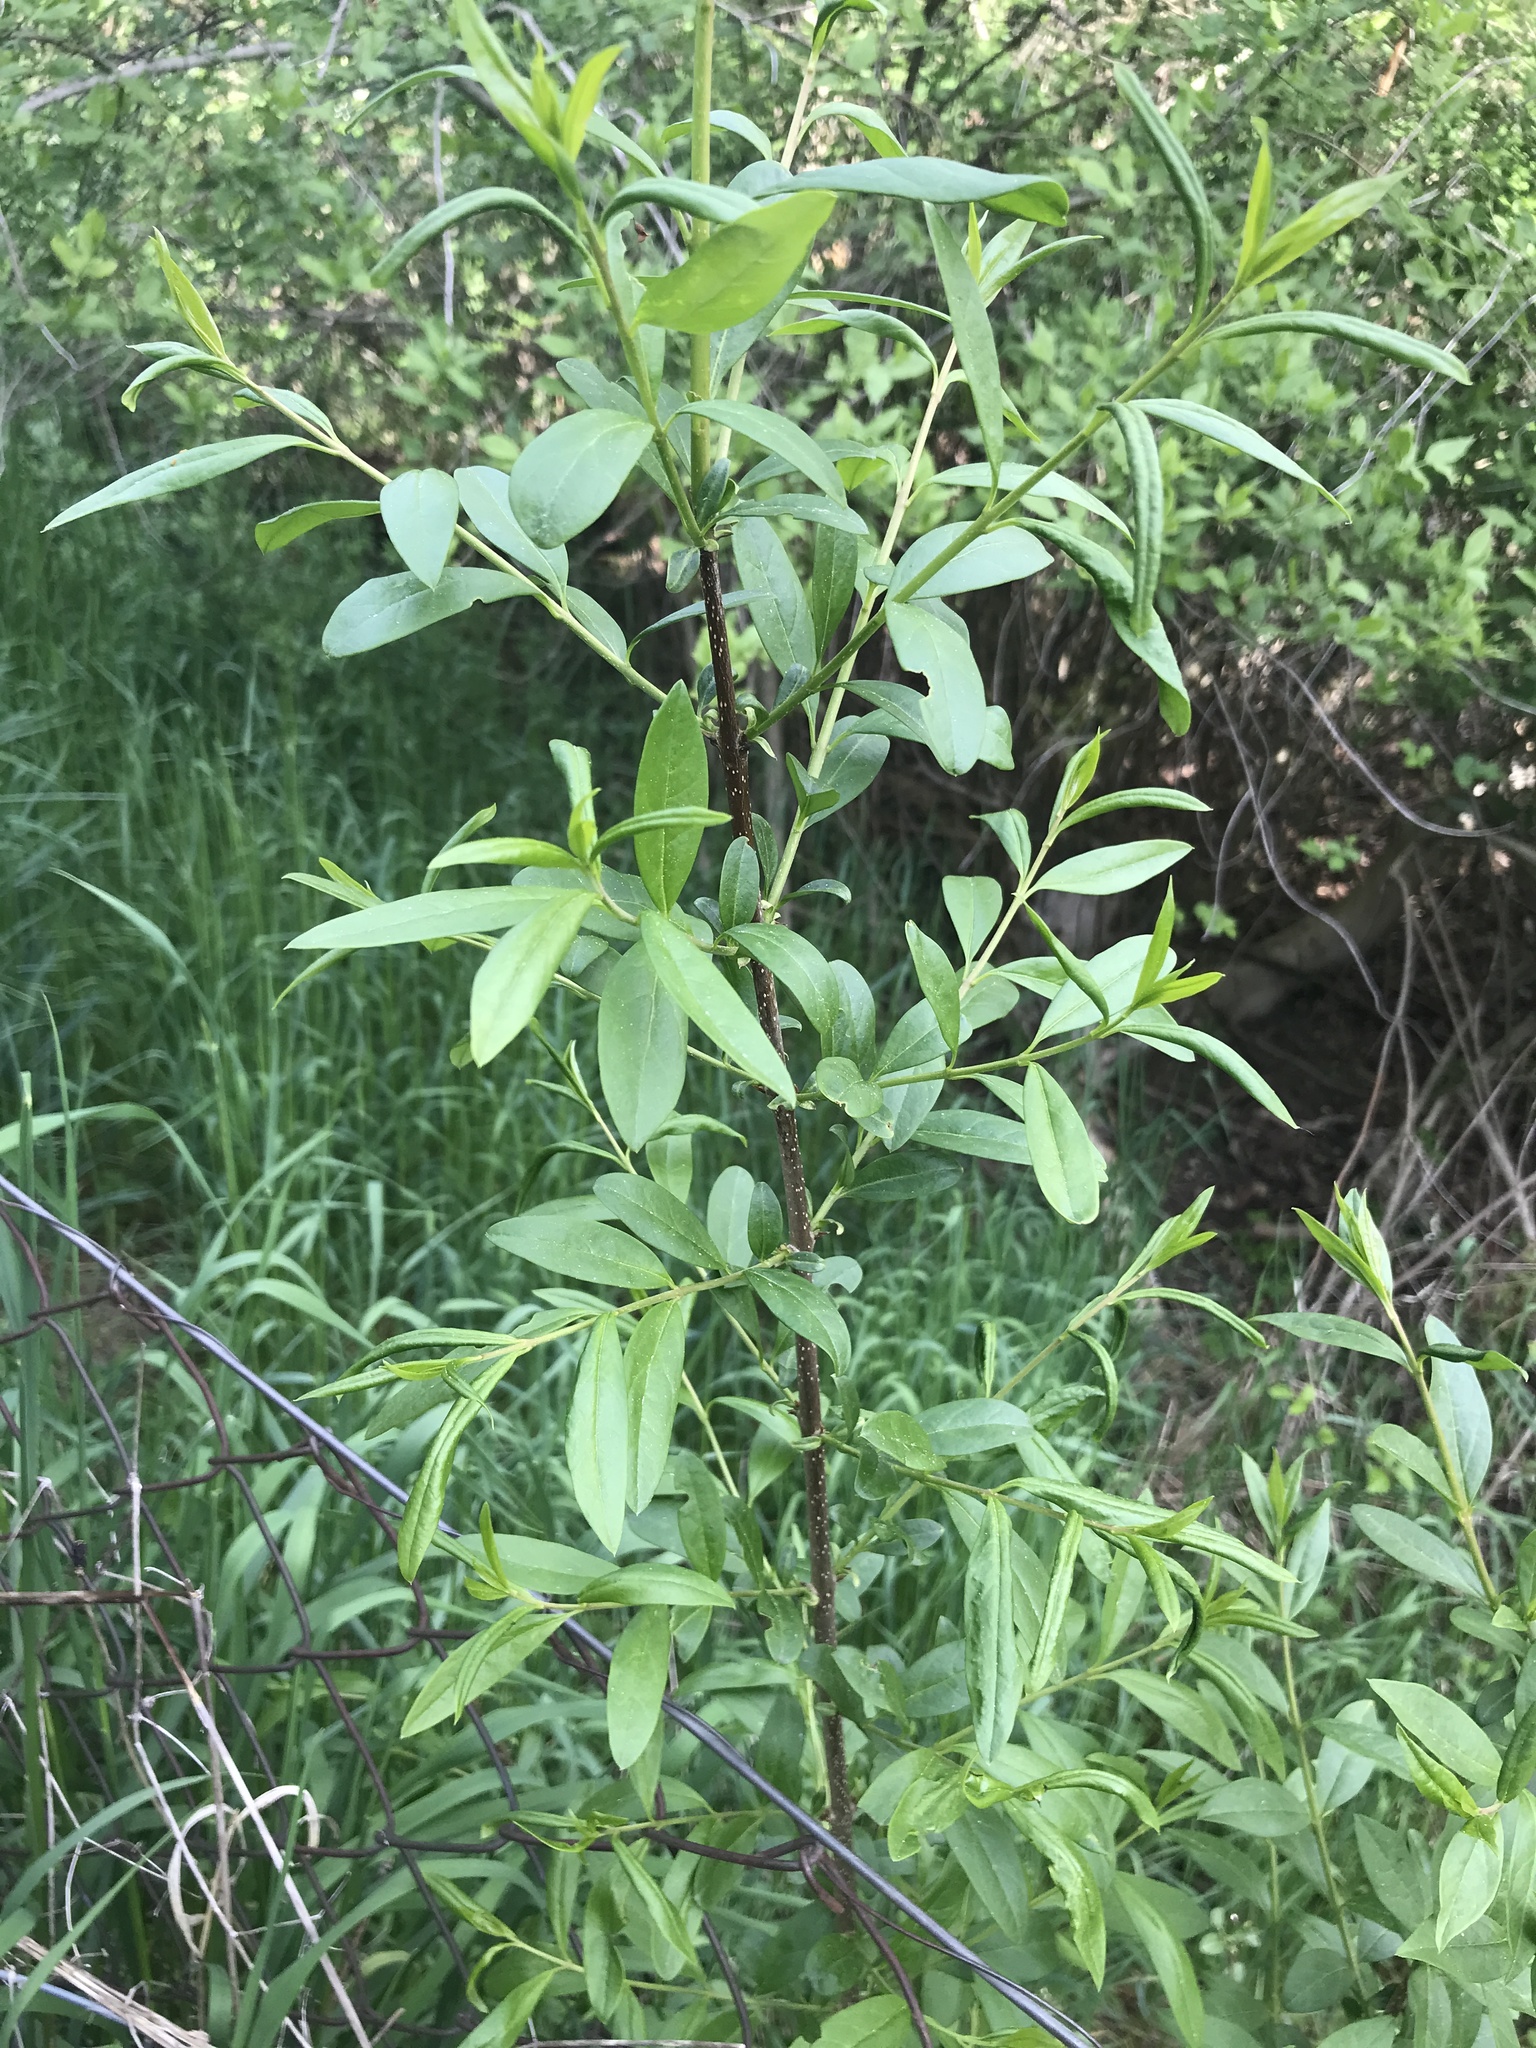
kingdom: Plantae
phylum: Tracheophyta
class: Magnoliopsida
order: Lamiales
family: Oleaceae
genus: Ligustrum
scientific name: Ligustrum vulgare
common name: Wild privet
